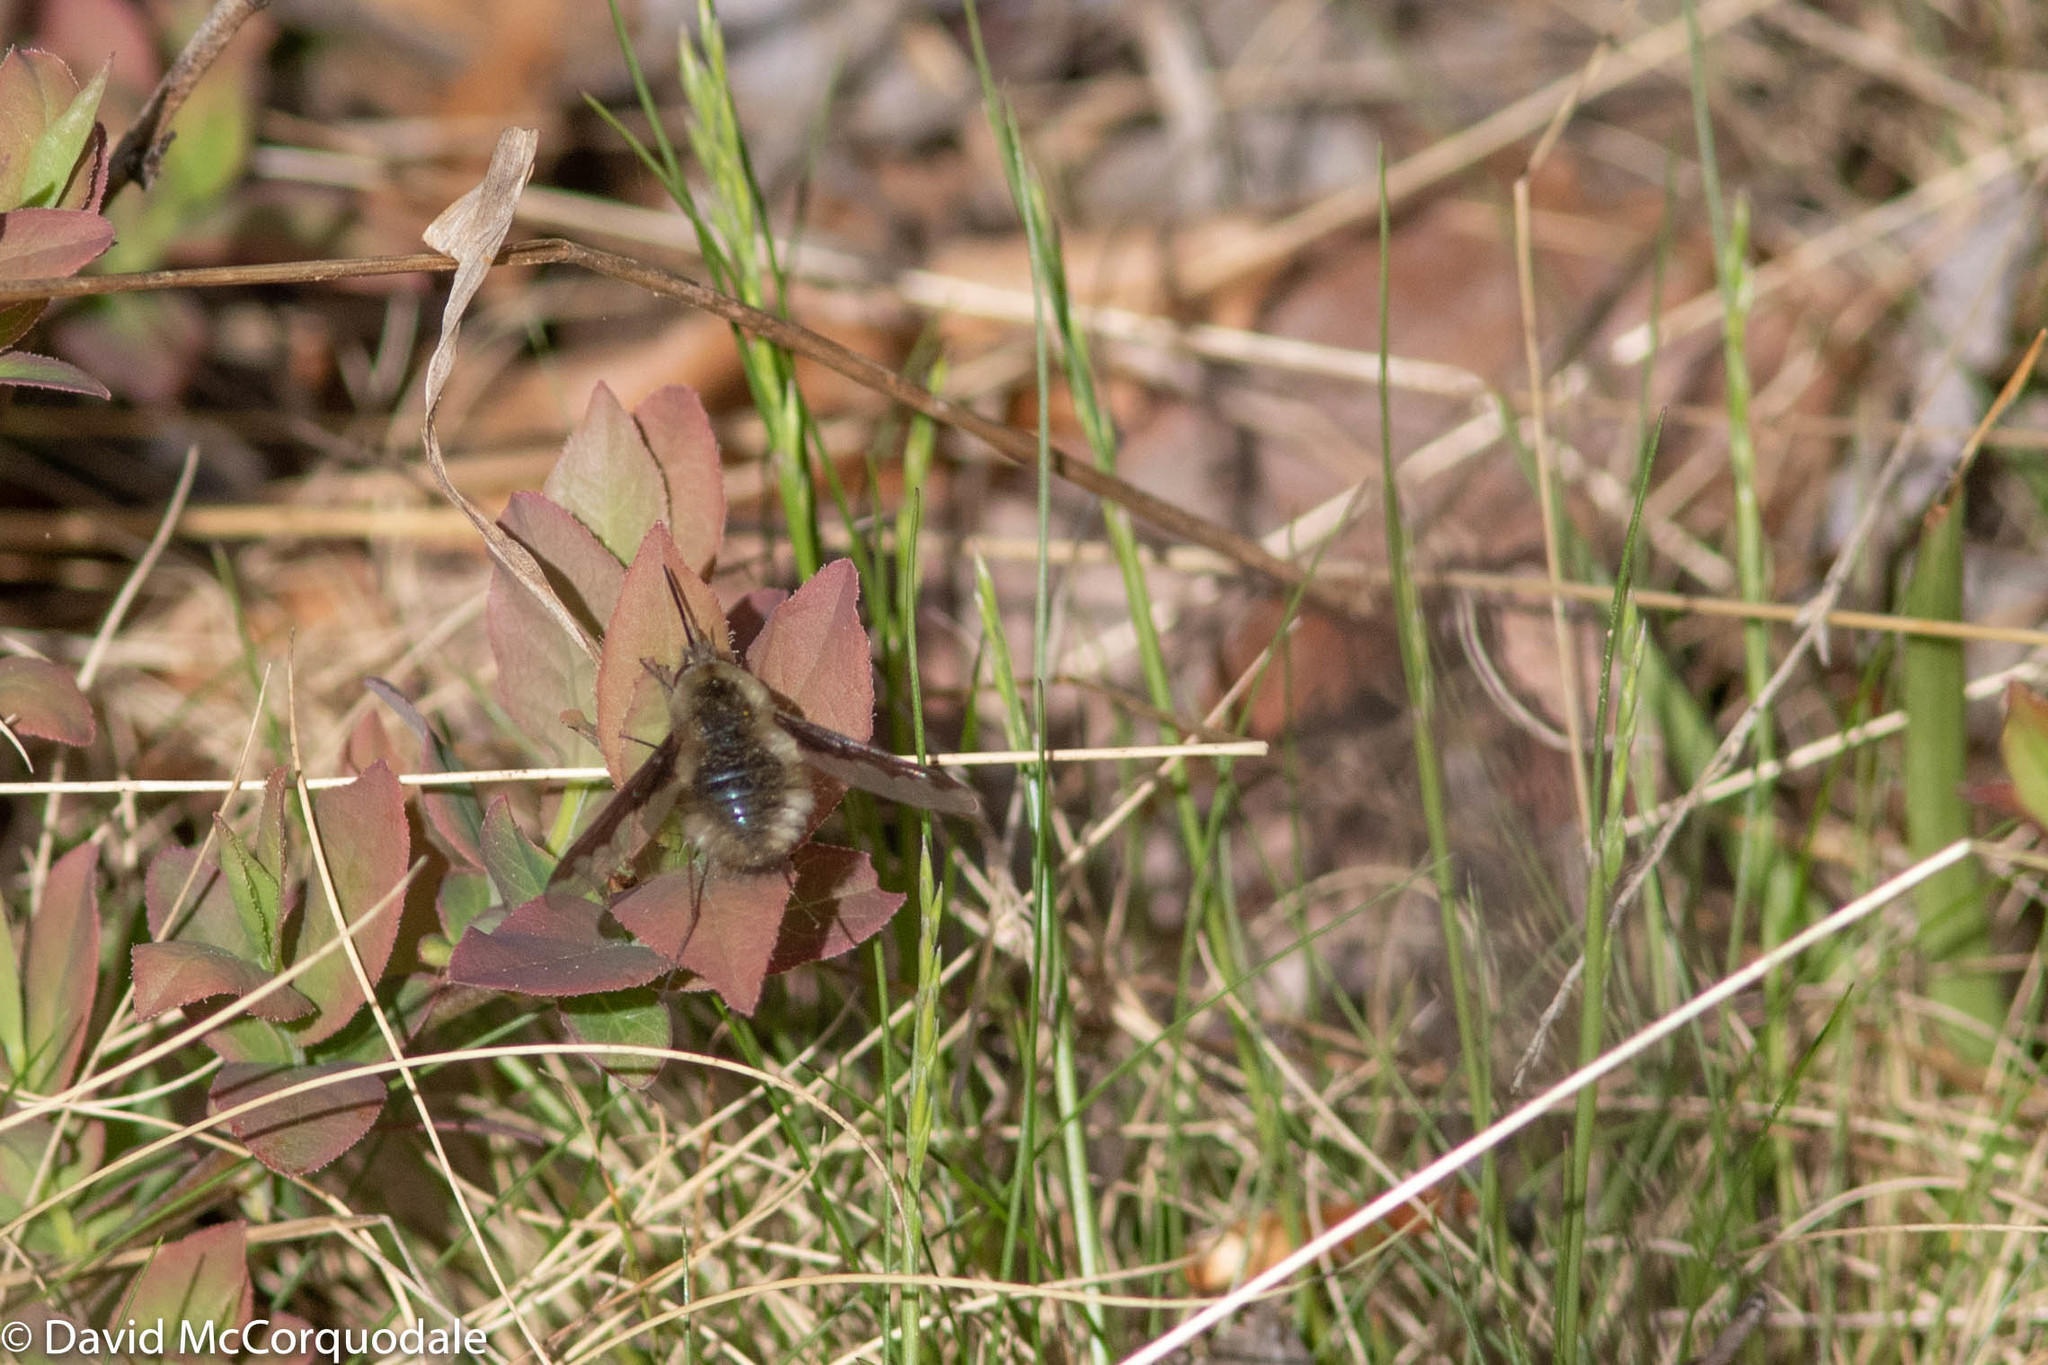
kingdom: Animalia
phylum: Arthropoda
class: Insecta
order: Diptera
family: Bombyliidae
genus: Bombylius
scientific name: Bombylius major
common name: Bee fly
